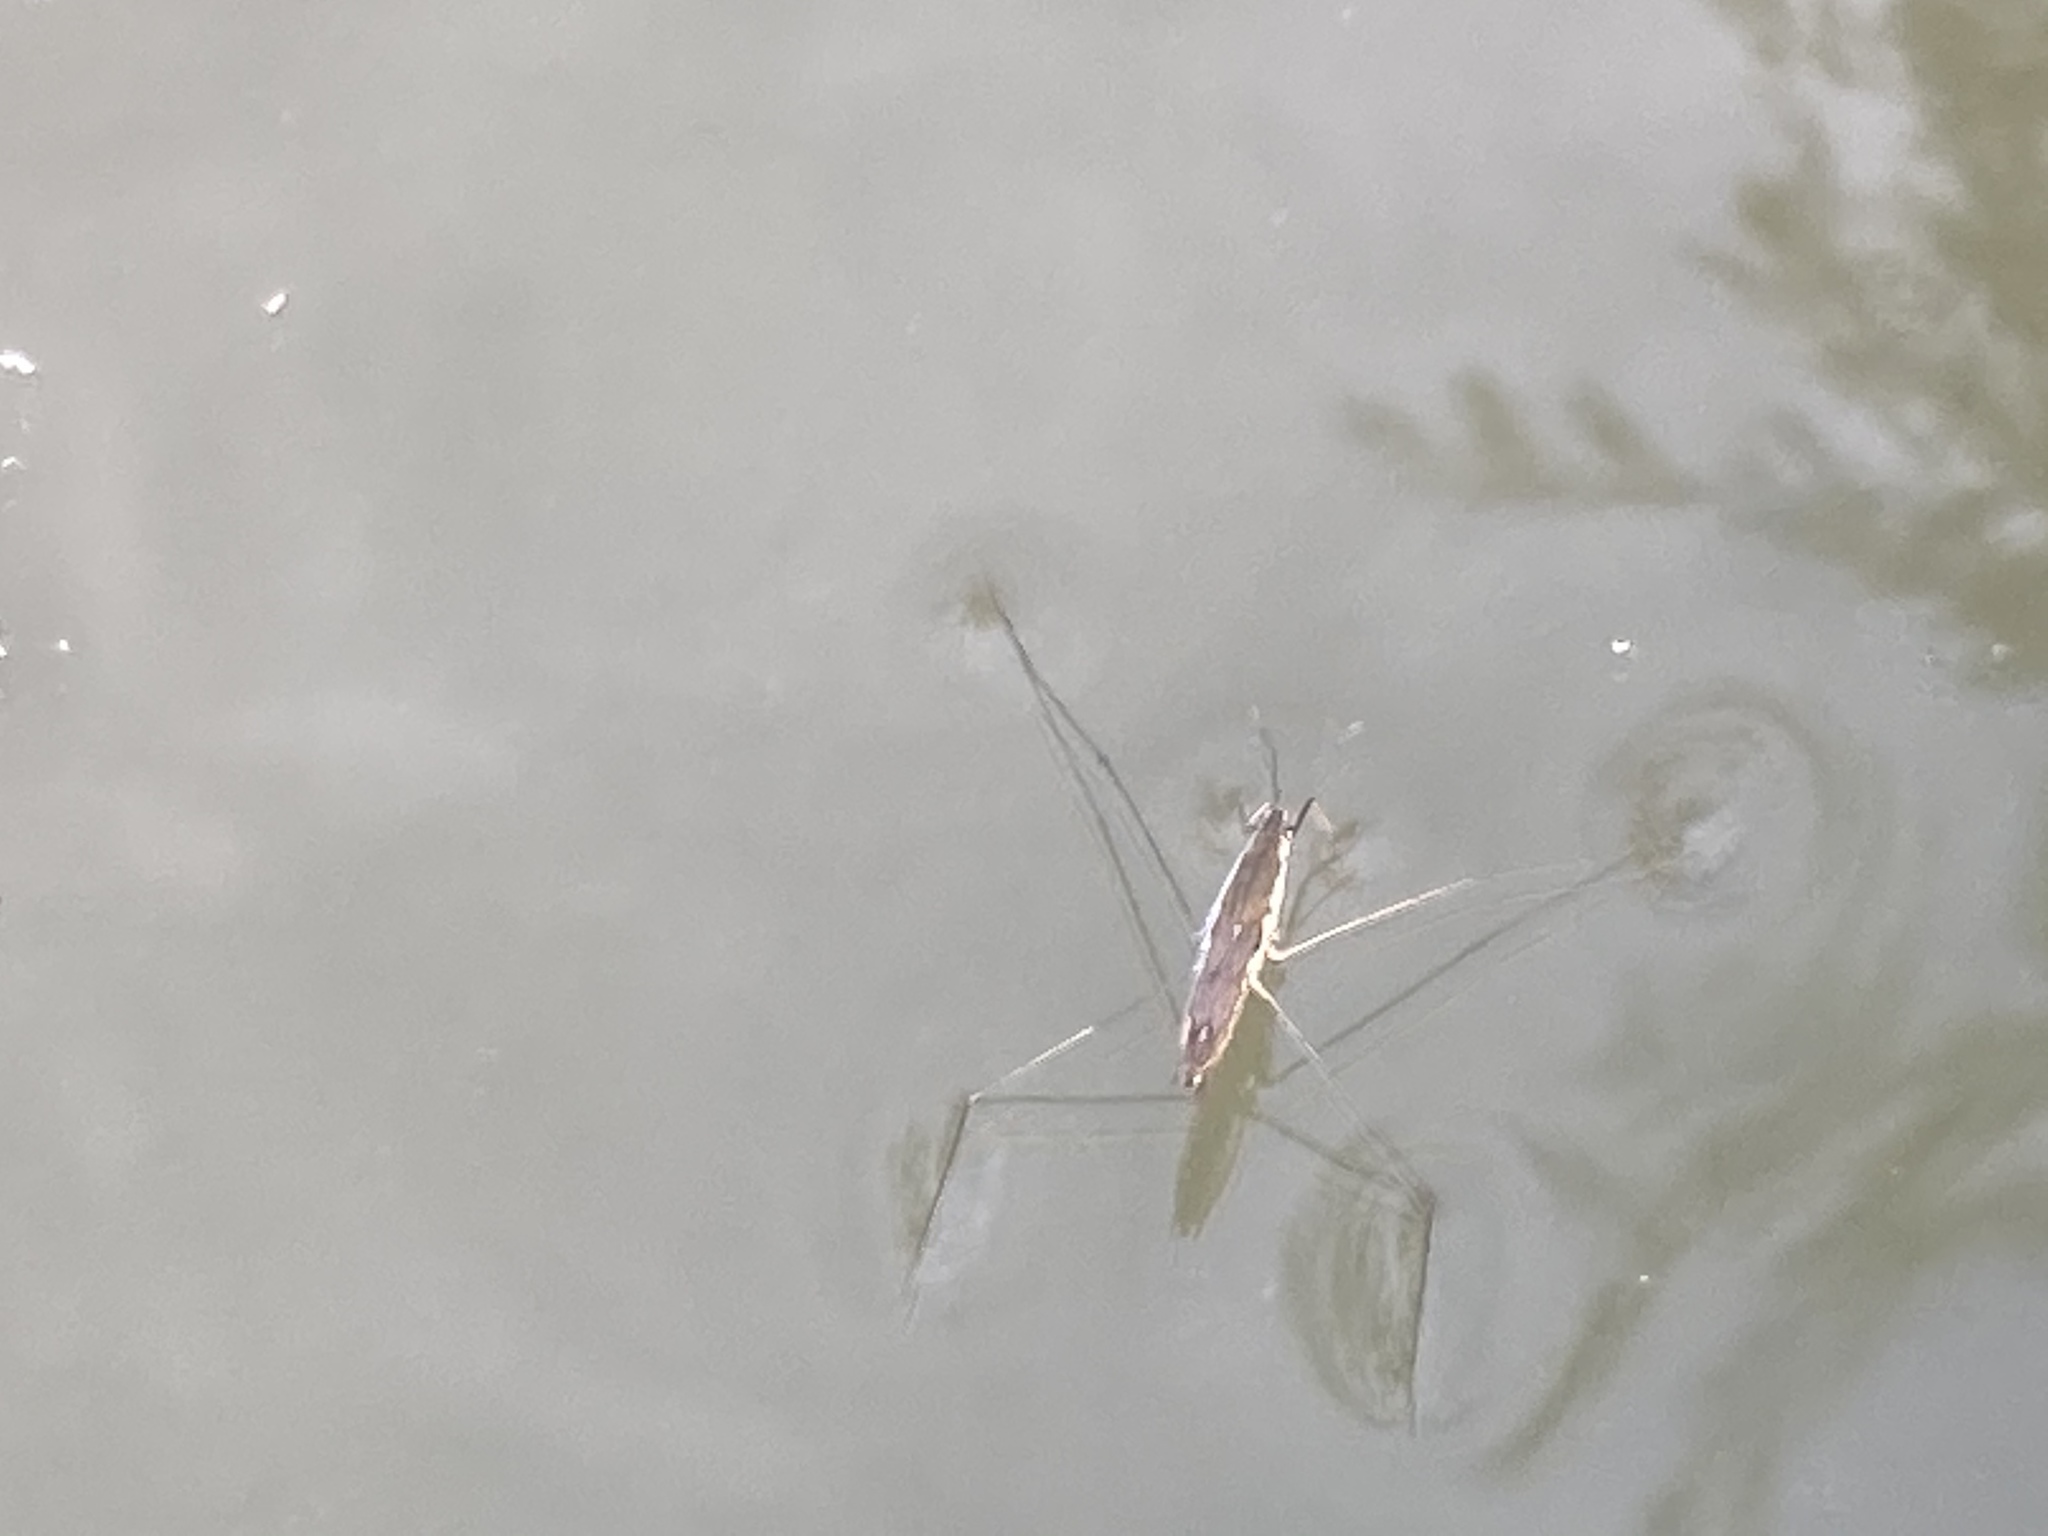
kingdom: Animalia
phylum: Arthropoda
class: Insecta
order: Hemiptera
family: Gerridae
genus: Aquarius
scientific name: Aquarius paludum
